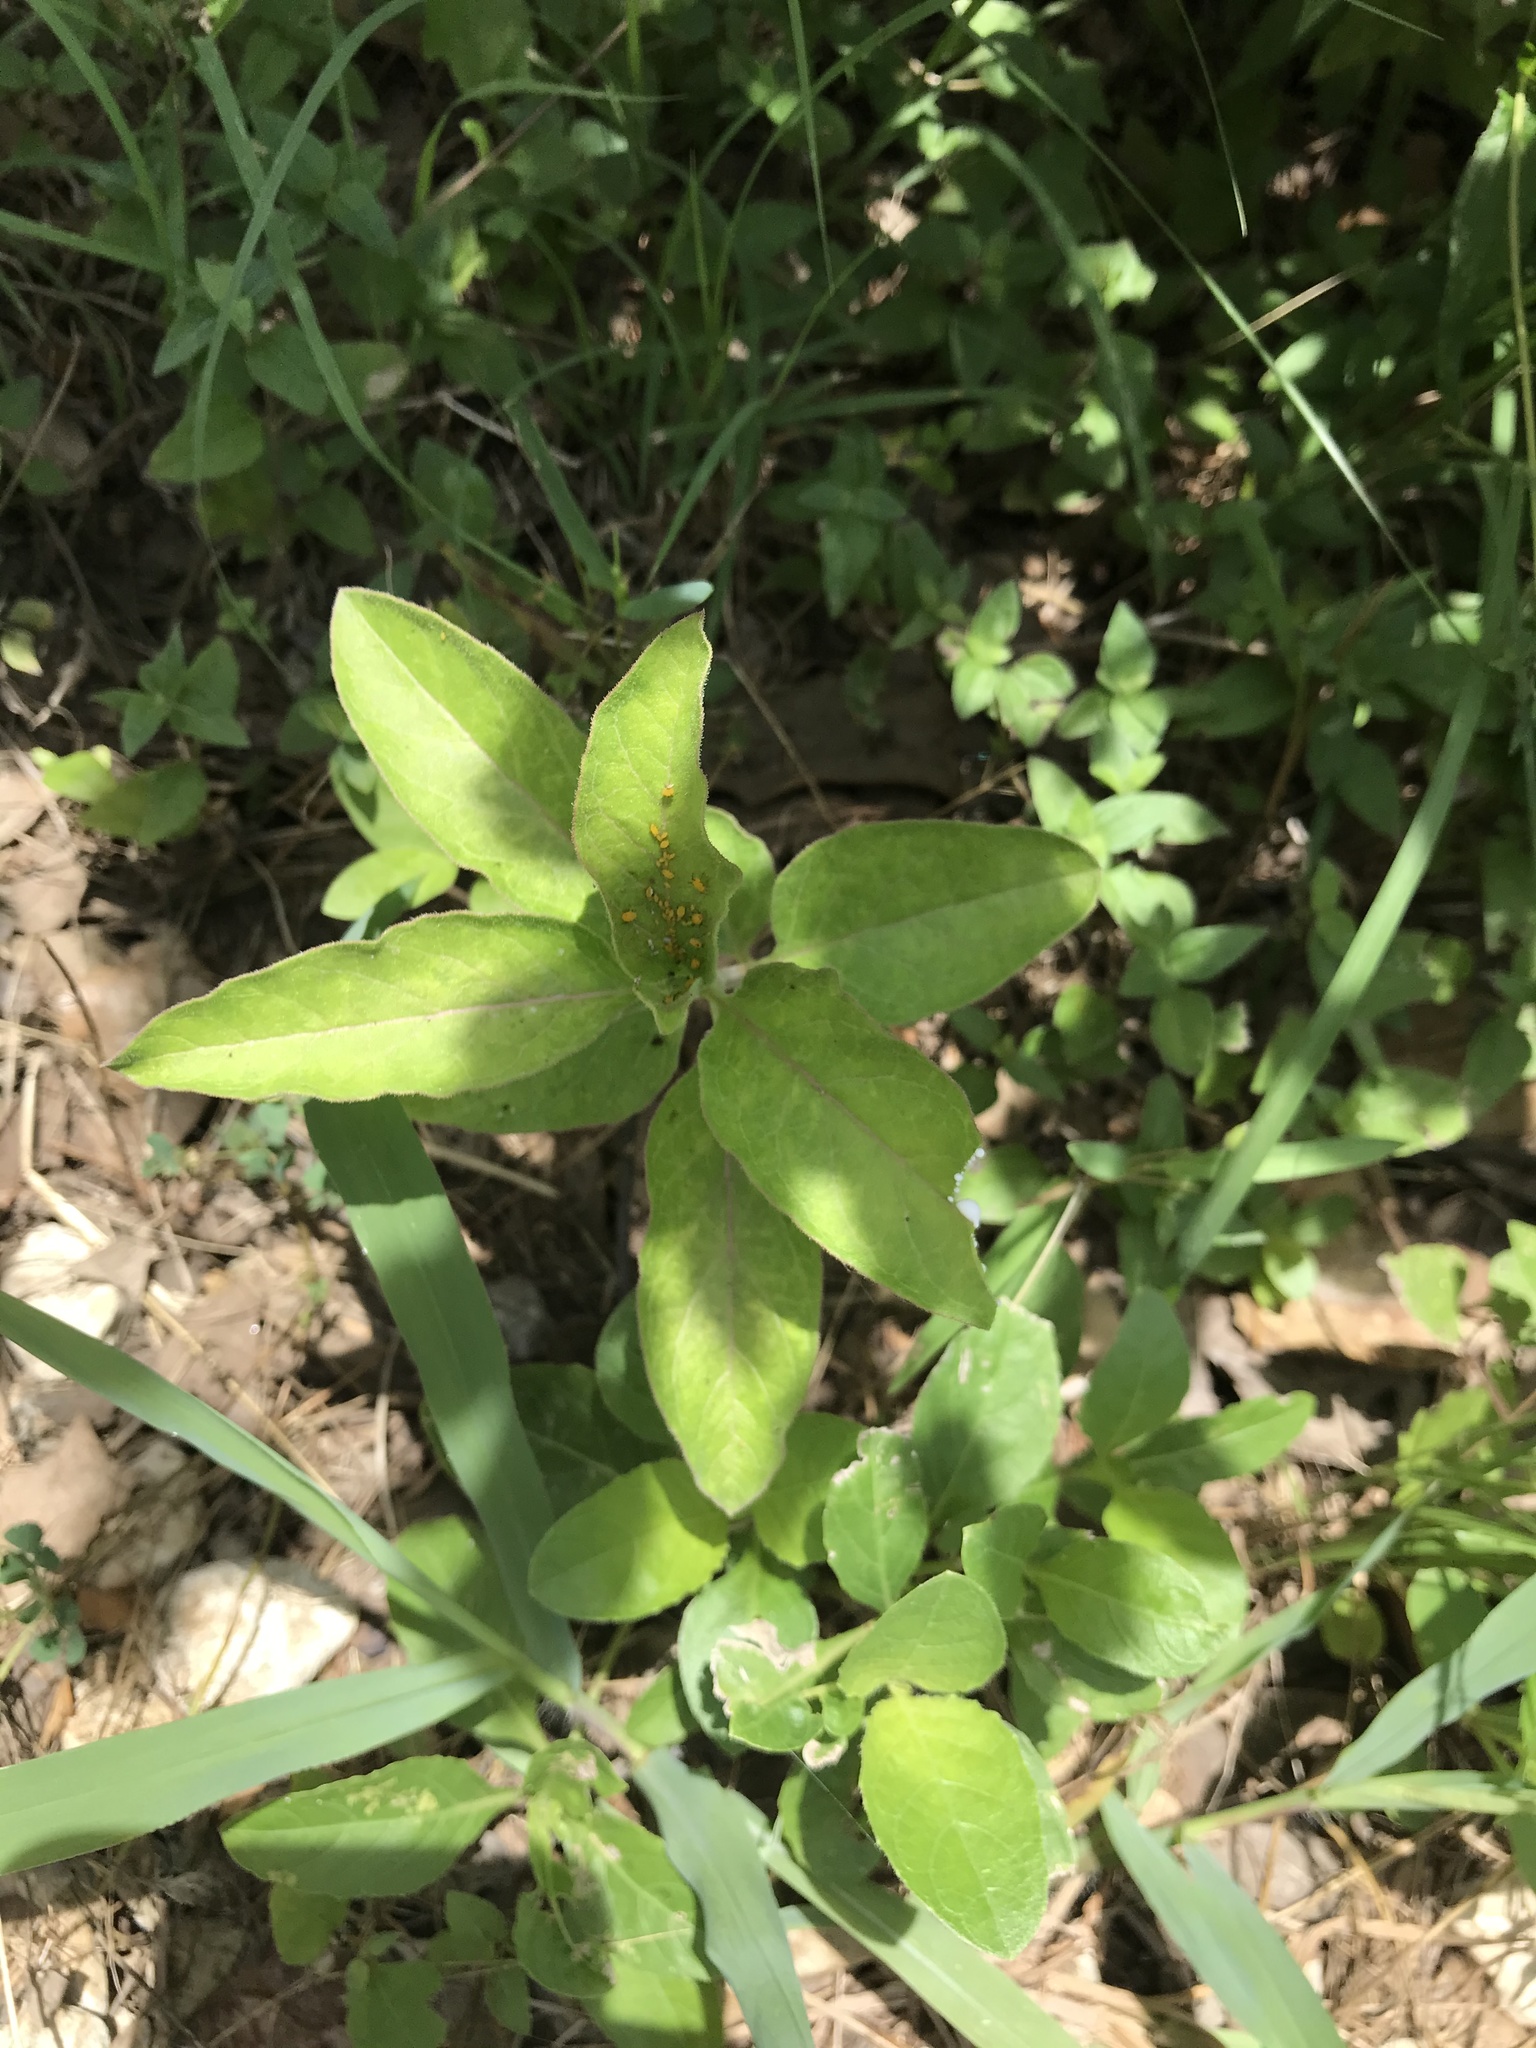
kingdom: Plantae
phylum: Tracheophyta
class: Magnoliopsida
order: Gentianales
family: Apocynaceae
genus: Asclepias
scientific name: Asclepias oenotheroides
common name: Zizotes milkweed
